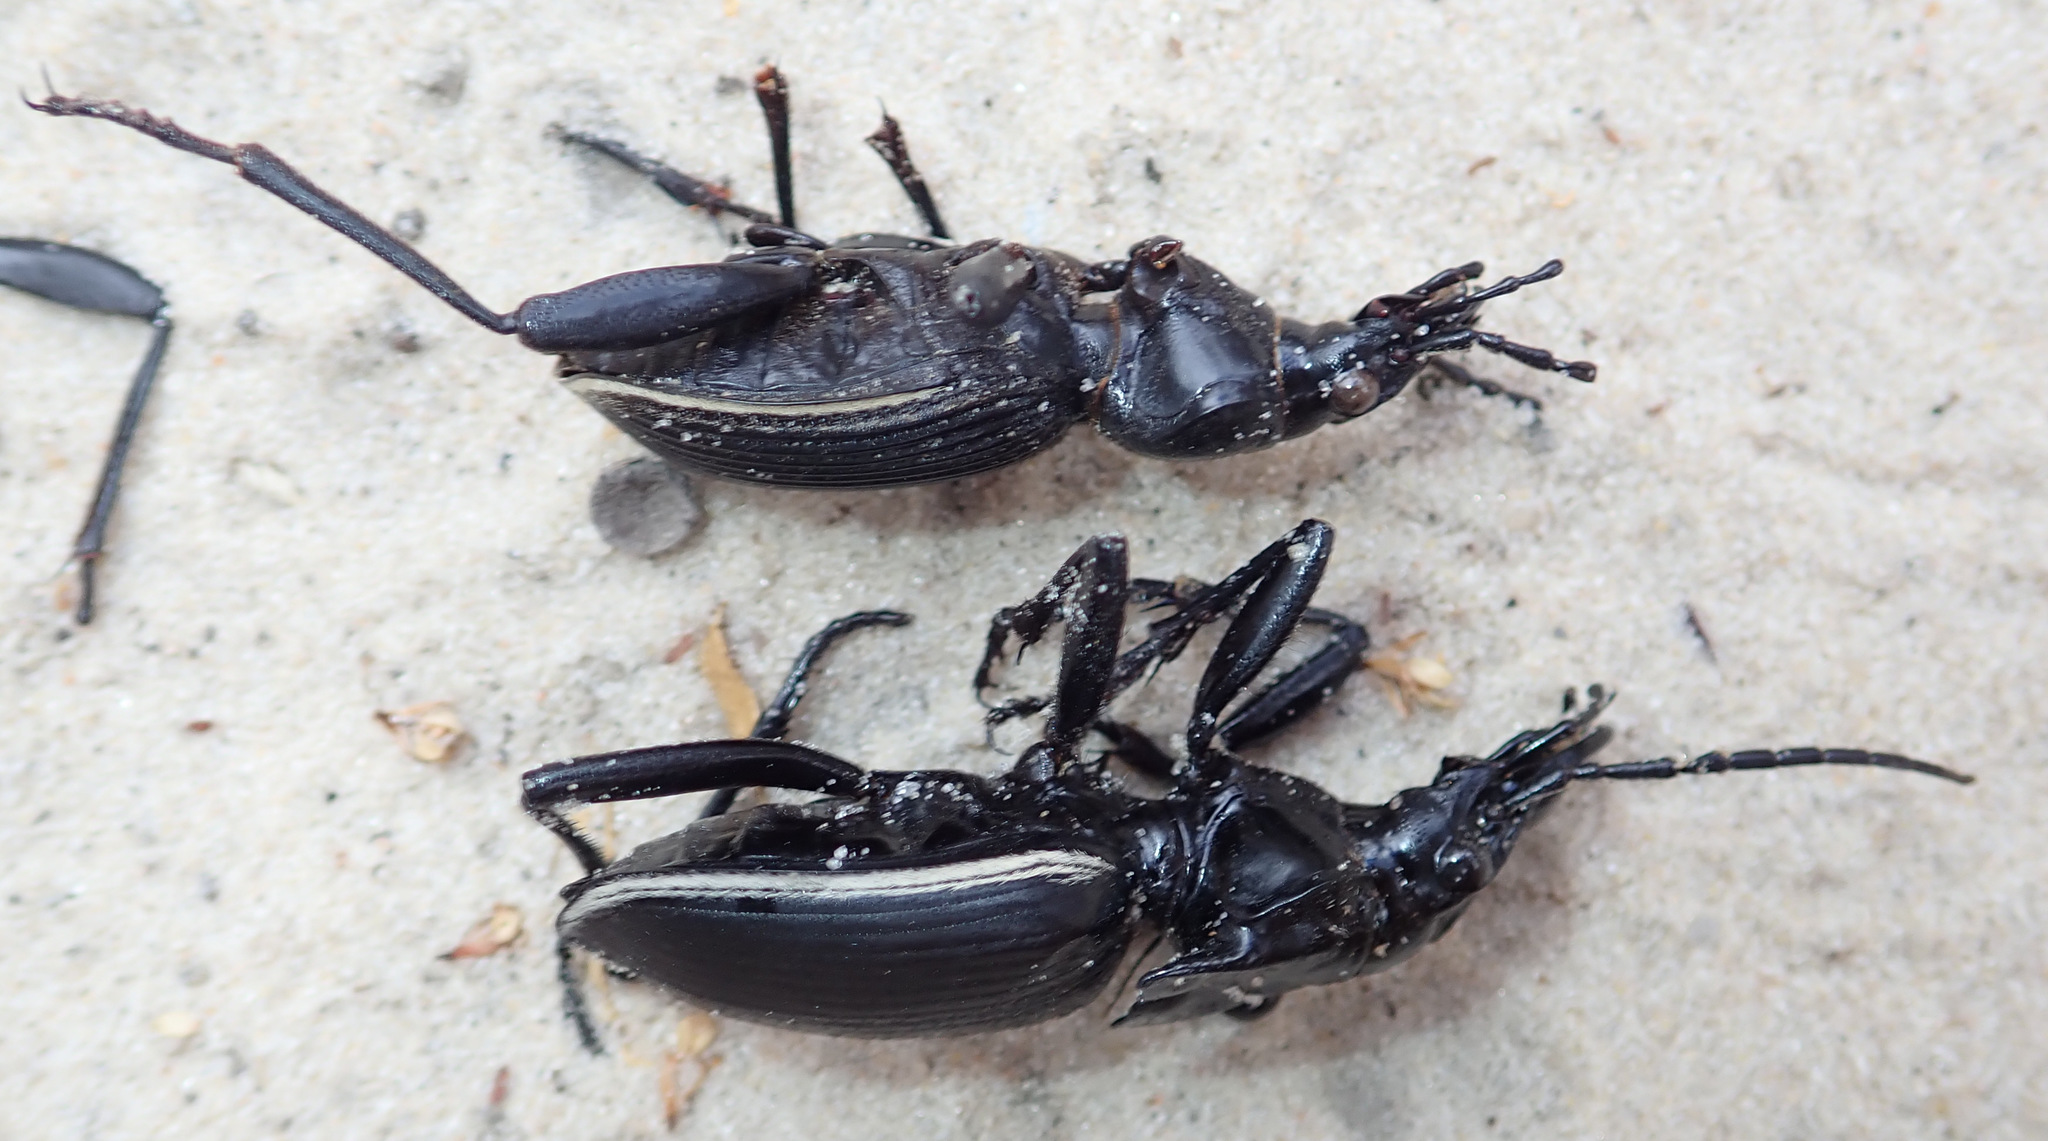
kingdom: Animalia
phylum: Arthropoda
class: Insecta
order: Coleoptera
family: Carabidae
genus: Anthia
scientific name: Anthia circumscripta
